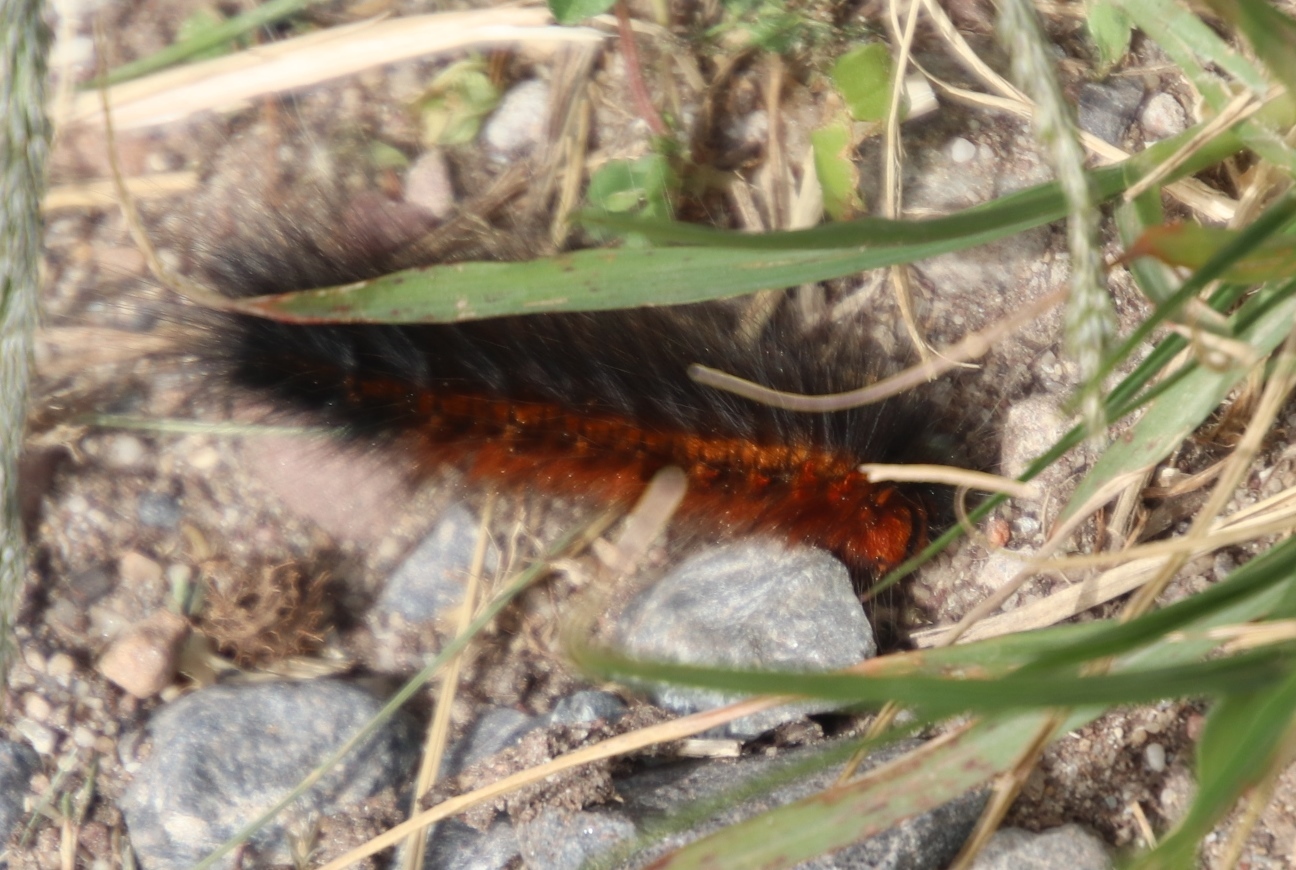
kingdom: Animalia
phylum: Arthropoda
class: Insecta
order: Lepidoptera
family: Lasiocampidae
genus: Mesocelis
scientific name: Mesocelis monticola
